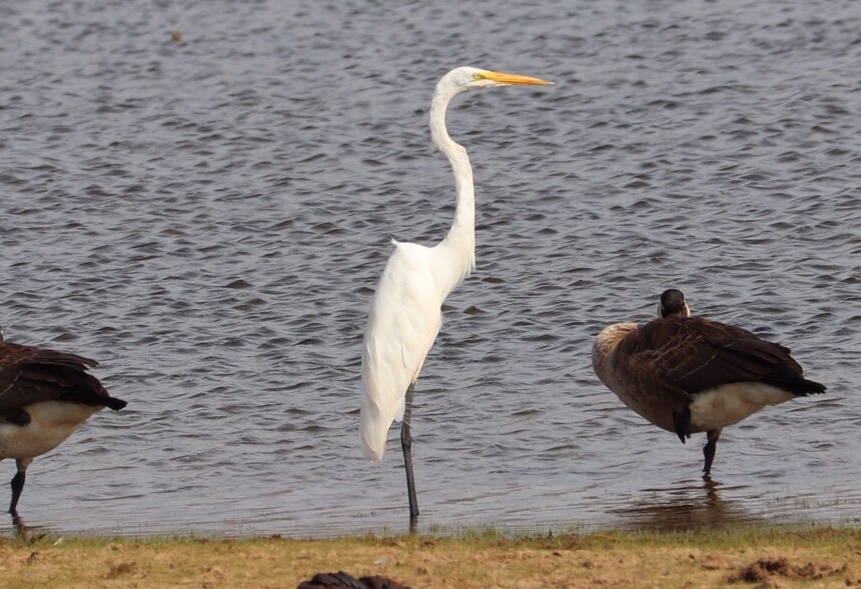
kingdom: Animalia
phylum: Chordata
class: Aves
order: Pelecaniformes
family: Ardeidae
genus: Ardea
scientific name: Ardea alba
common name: Great egret
